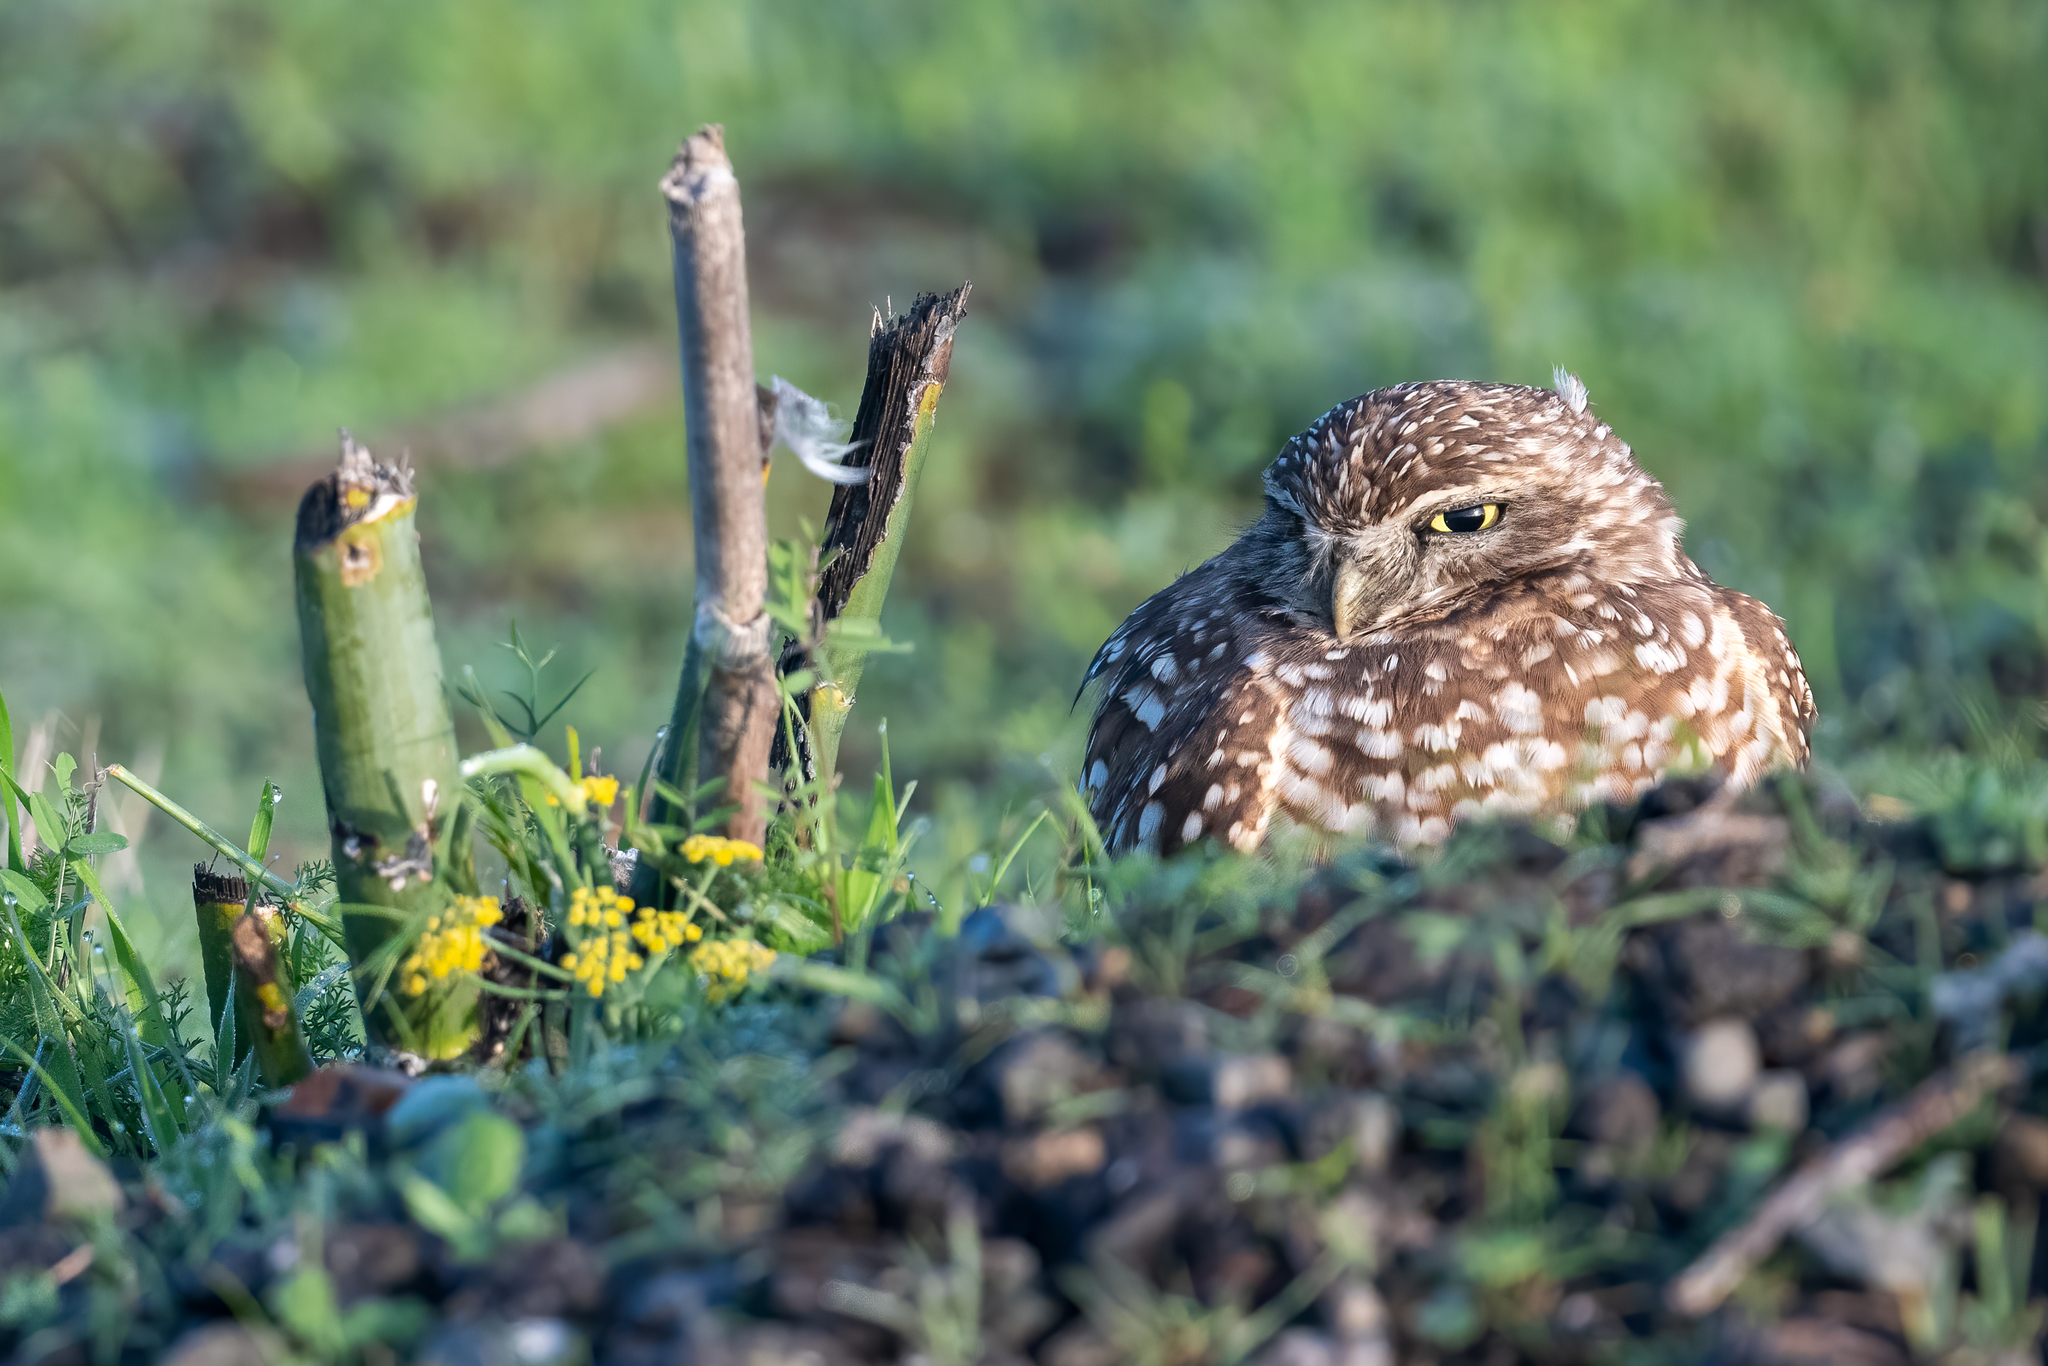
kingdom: Animalia
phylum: Chordata
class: Aves
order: Strigiformes
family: Strigidae
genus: Athene
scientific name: Athene cunicularia
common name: Burrowing owl
